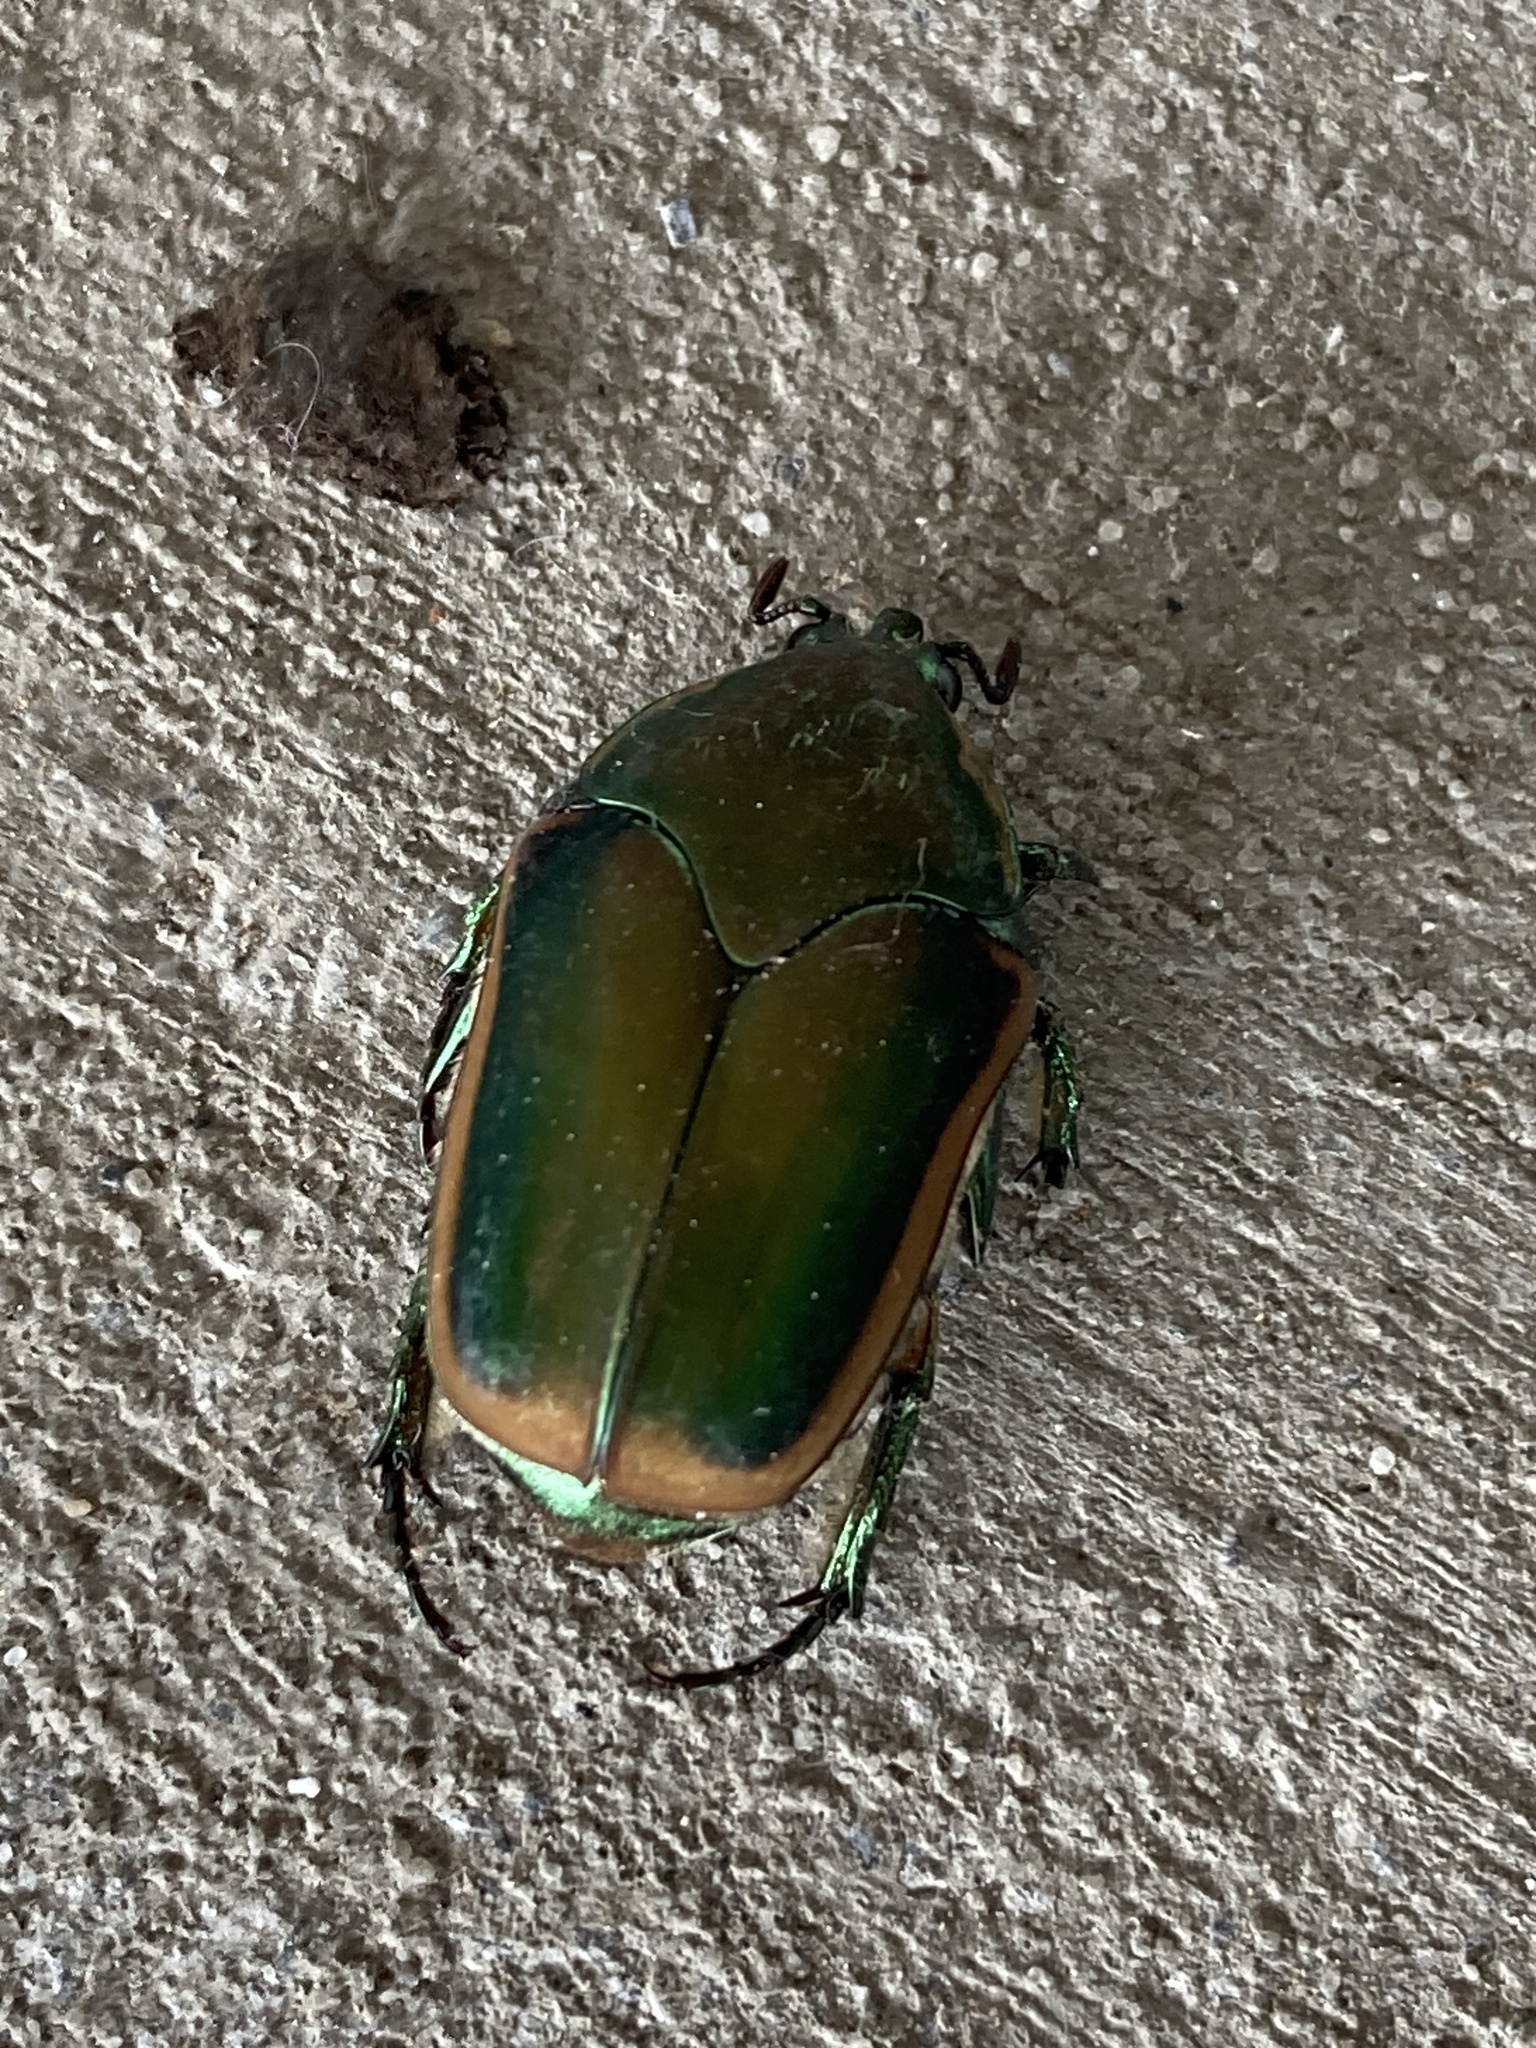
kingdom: Animalia
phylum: Arthropoda
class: Insecta
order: Coleoptera
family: Scarabaeidae
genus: Cotinis
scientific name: Cotinis nitida
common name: Common green june beetle
